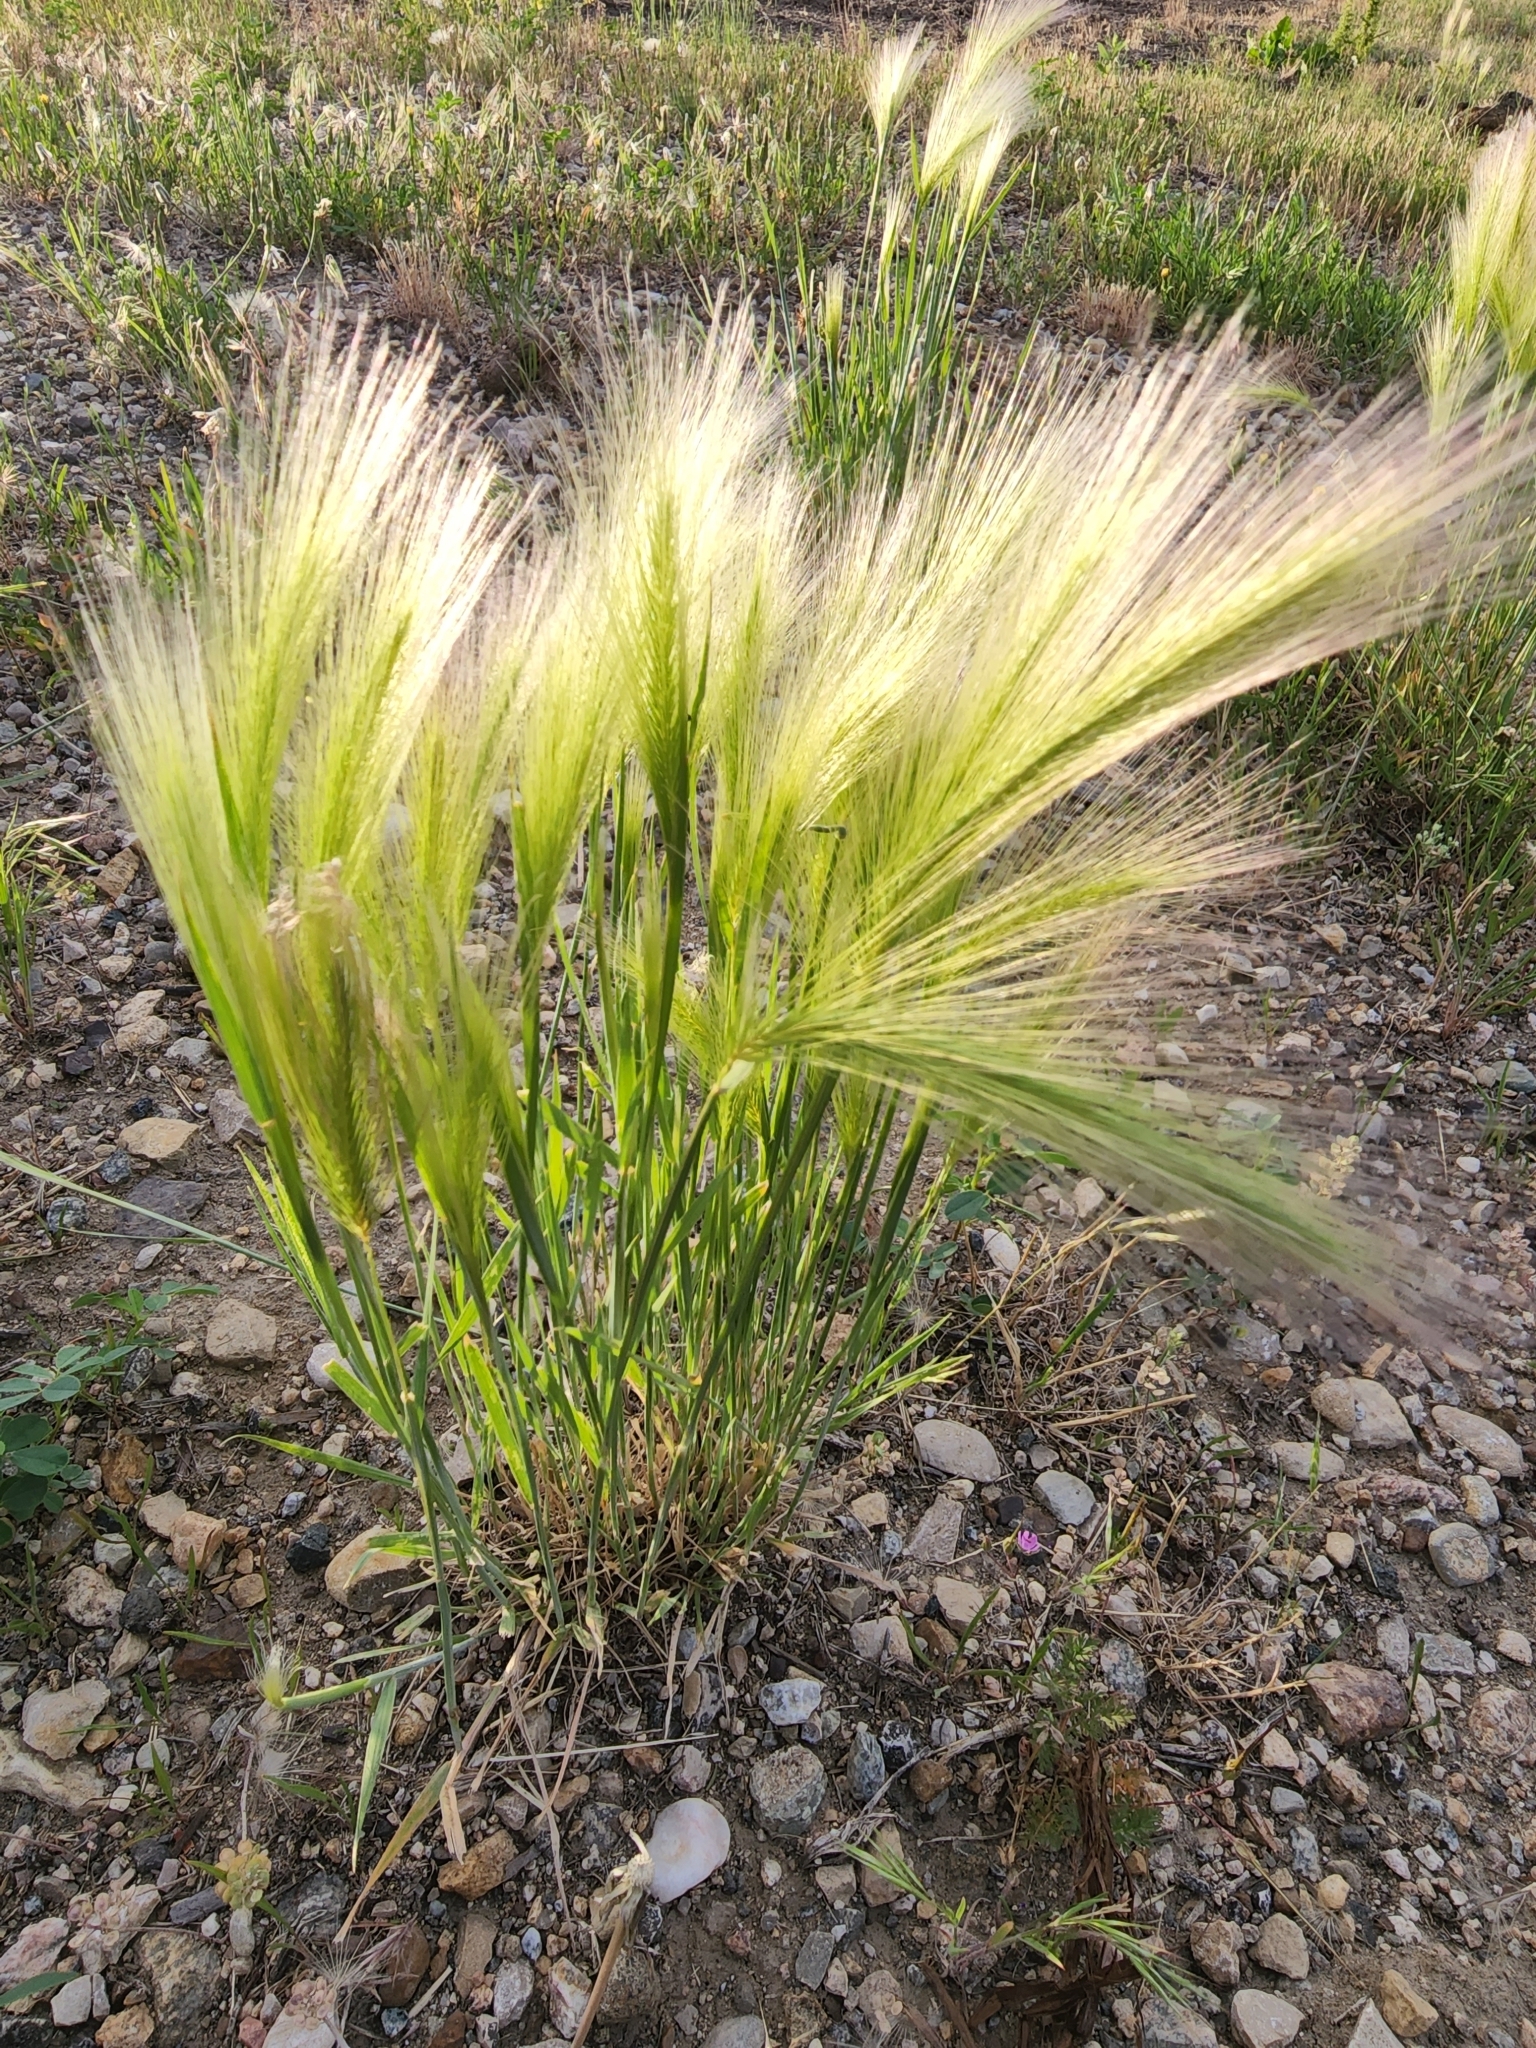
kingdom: Plantae
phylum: Tracheophyta
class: Liliopsida
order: Poales
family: Poaceae
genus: Hordeum
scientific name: Hordeum jubatum
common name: Foxtail barley
